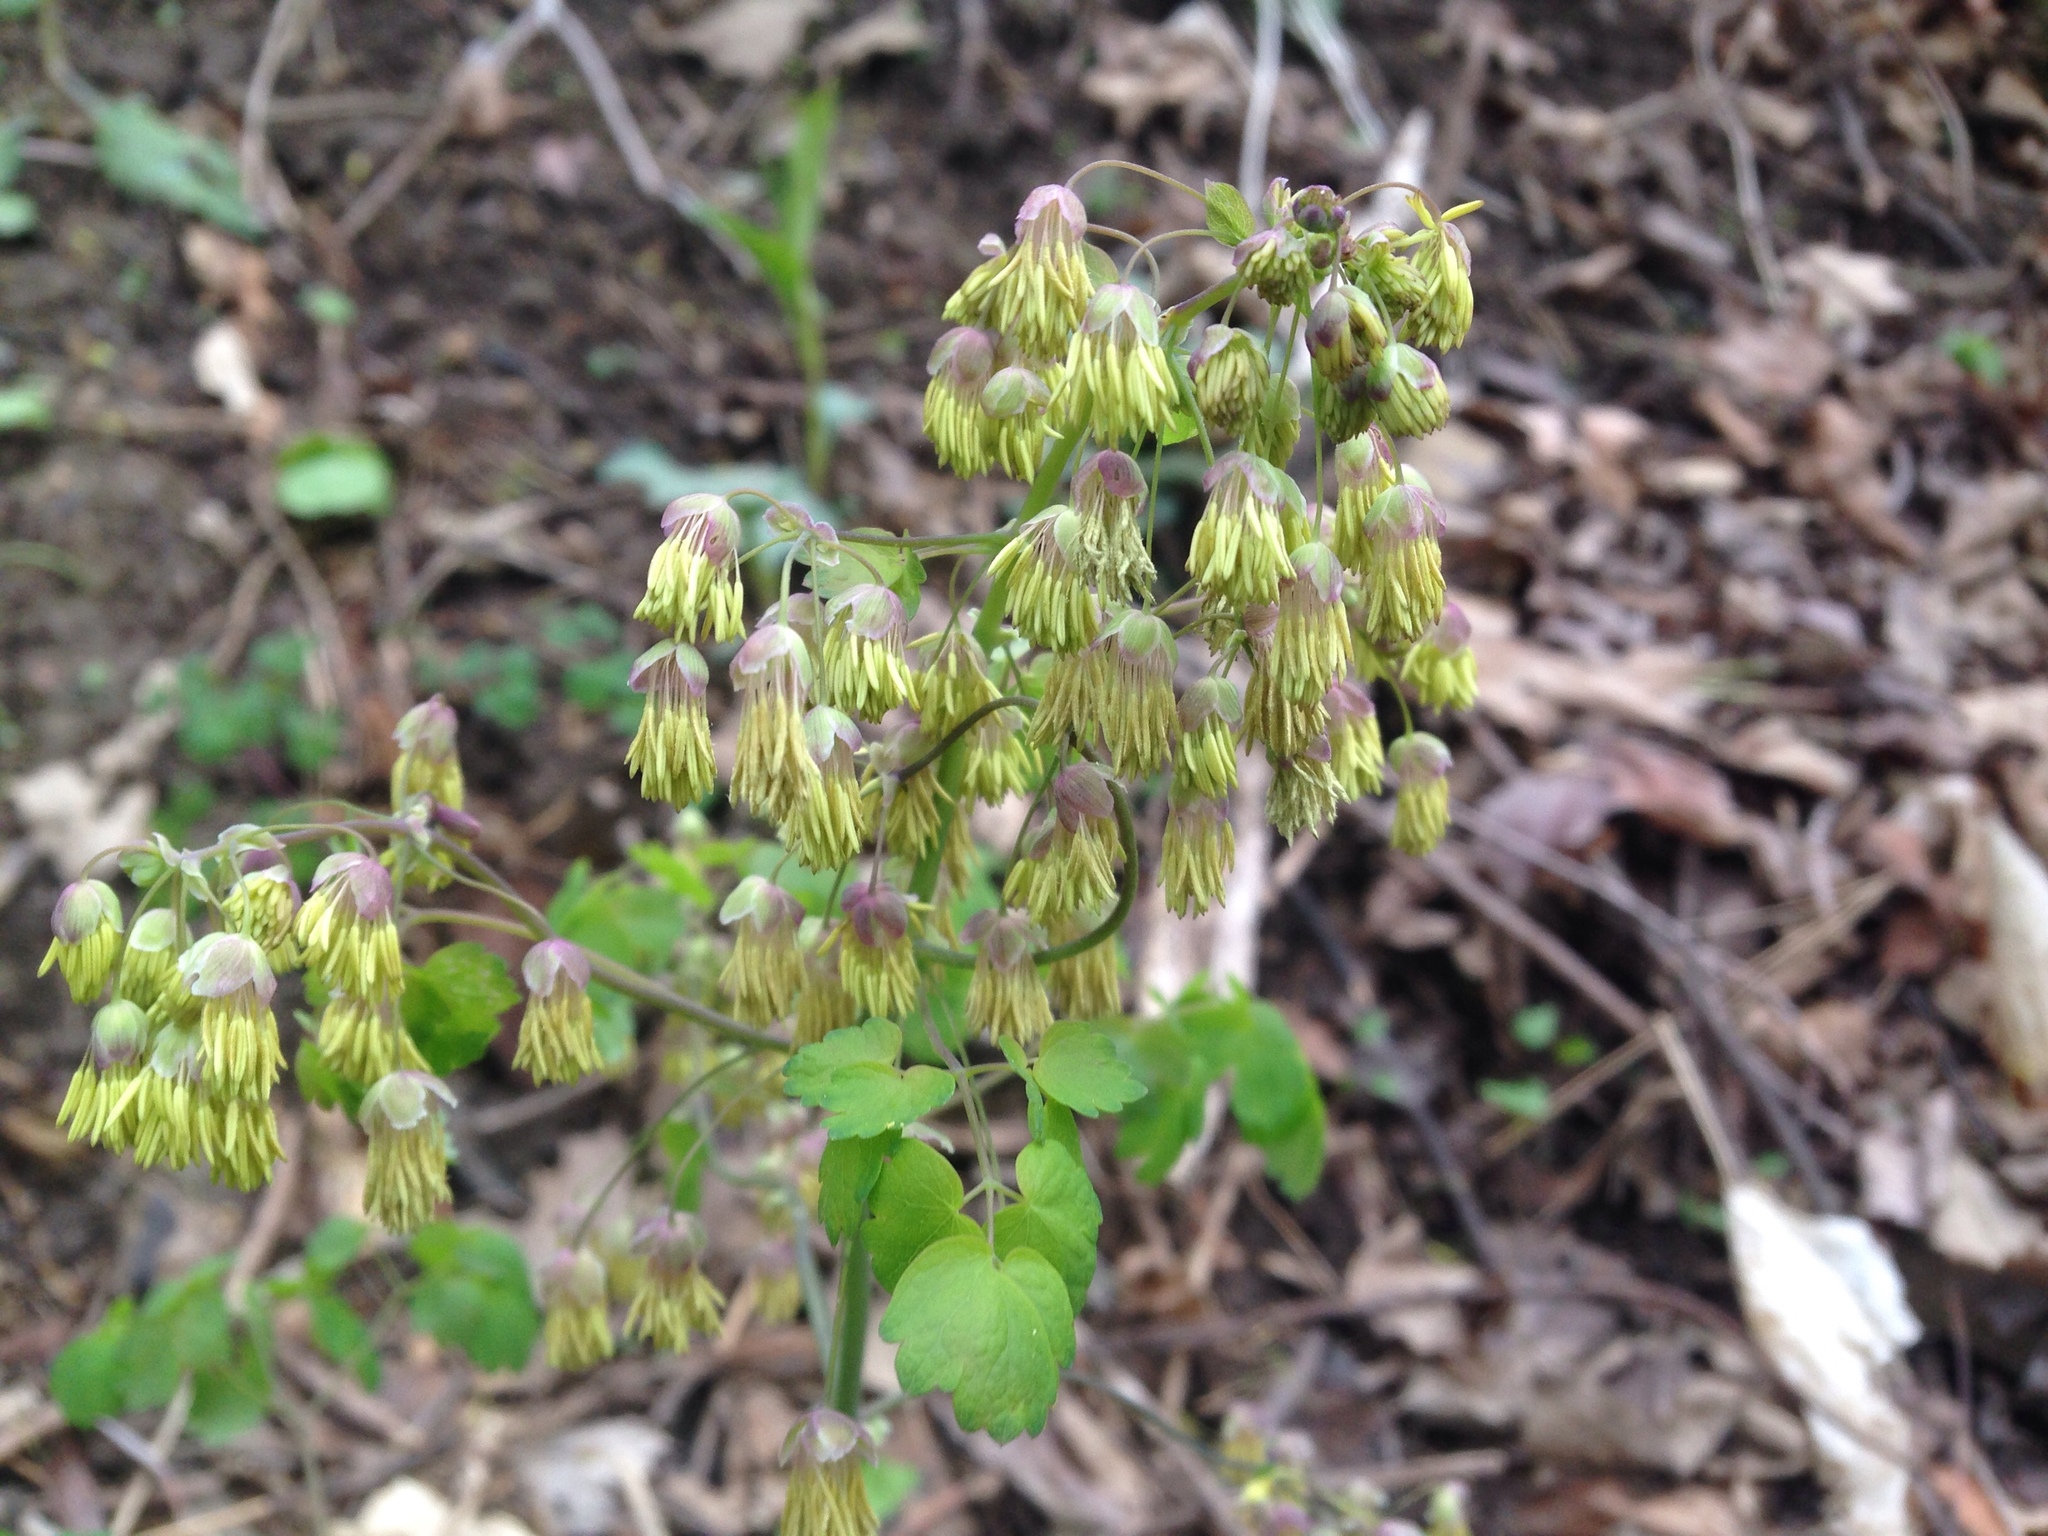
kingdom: Plantae
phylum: Tracheophyta
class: Magnoliopsida
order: Ranunculales
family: Ranunculaceae
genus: Thalictrum
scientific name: Thalictrum dioicum
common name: Early meadow-rue
